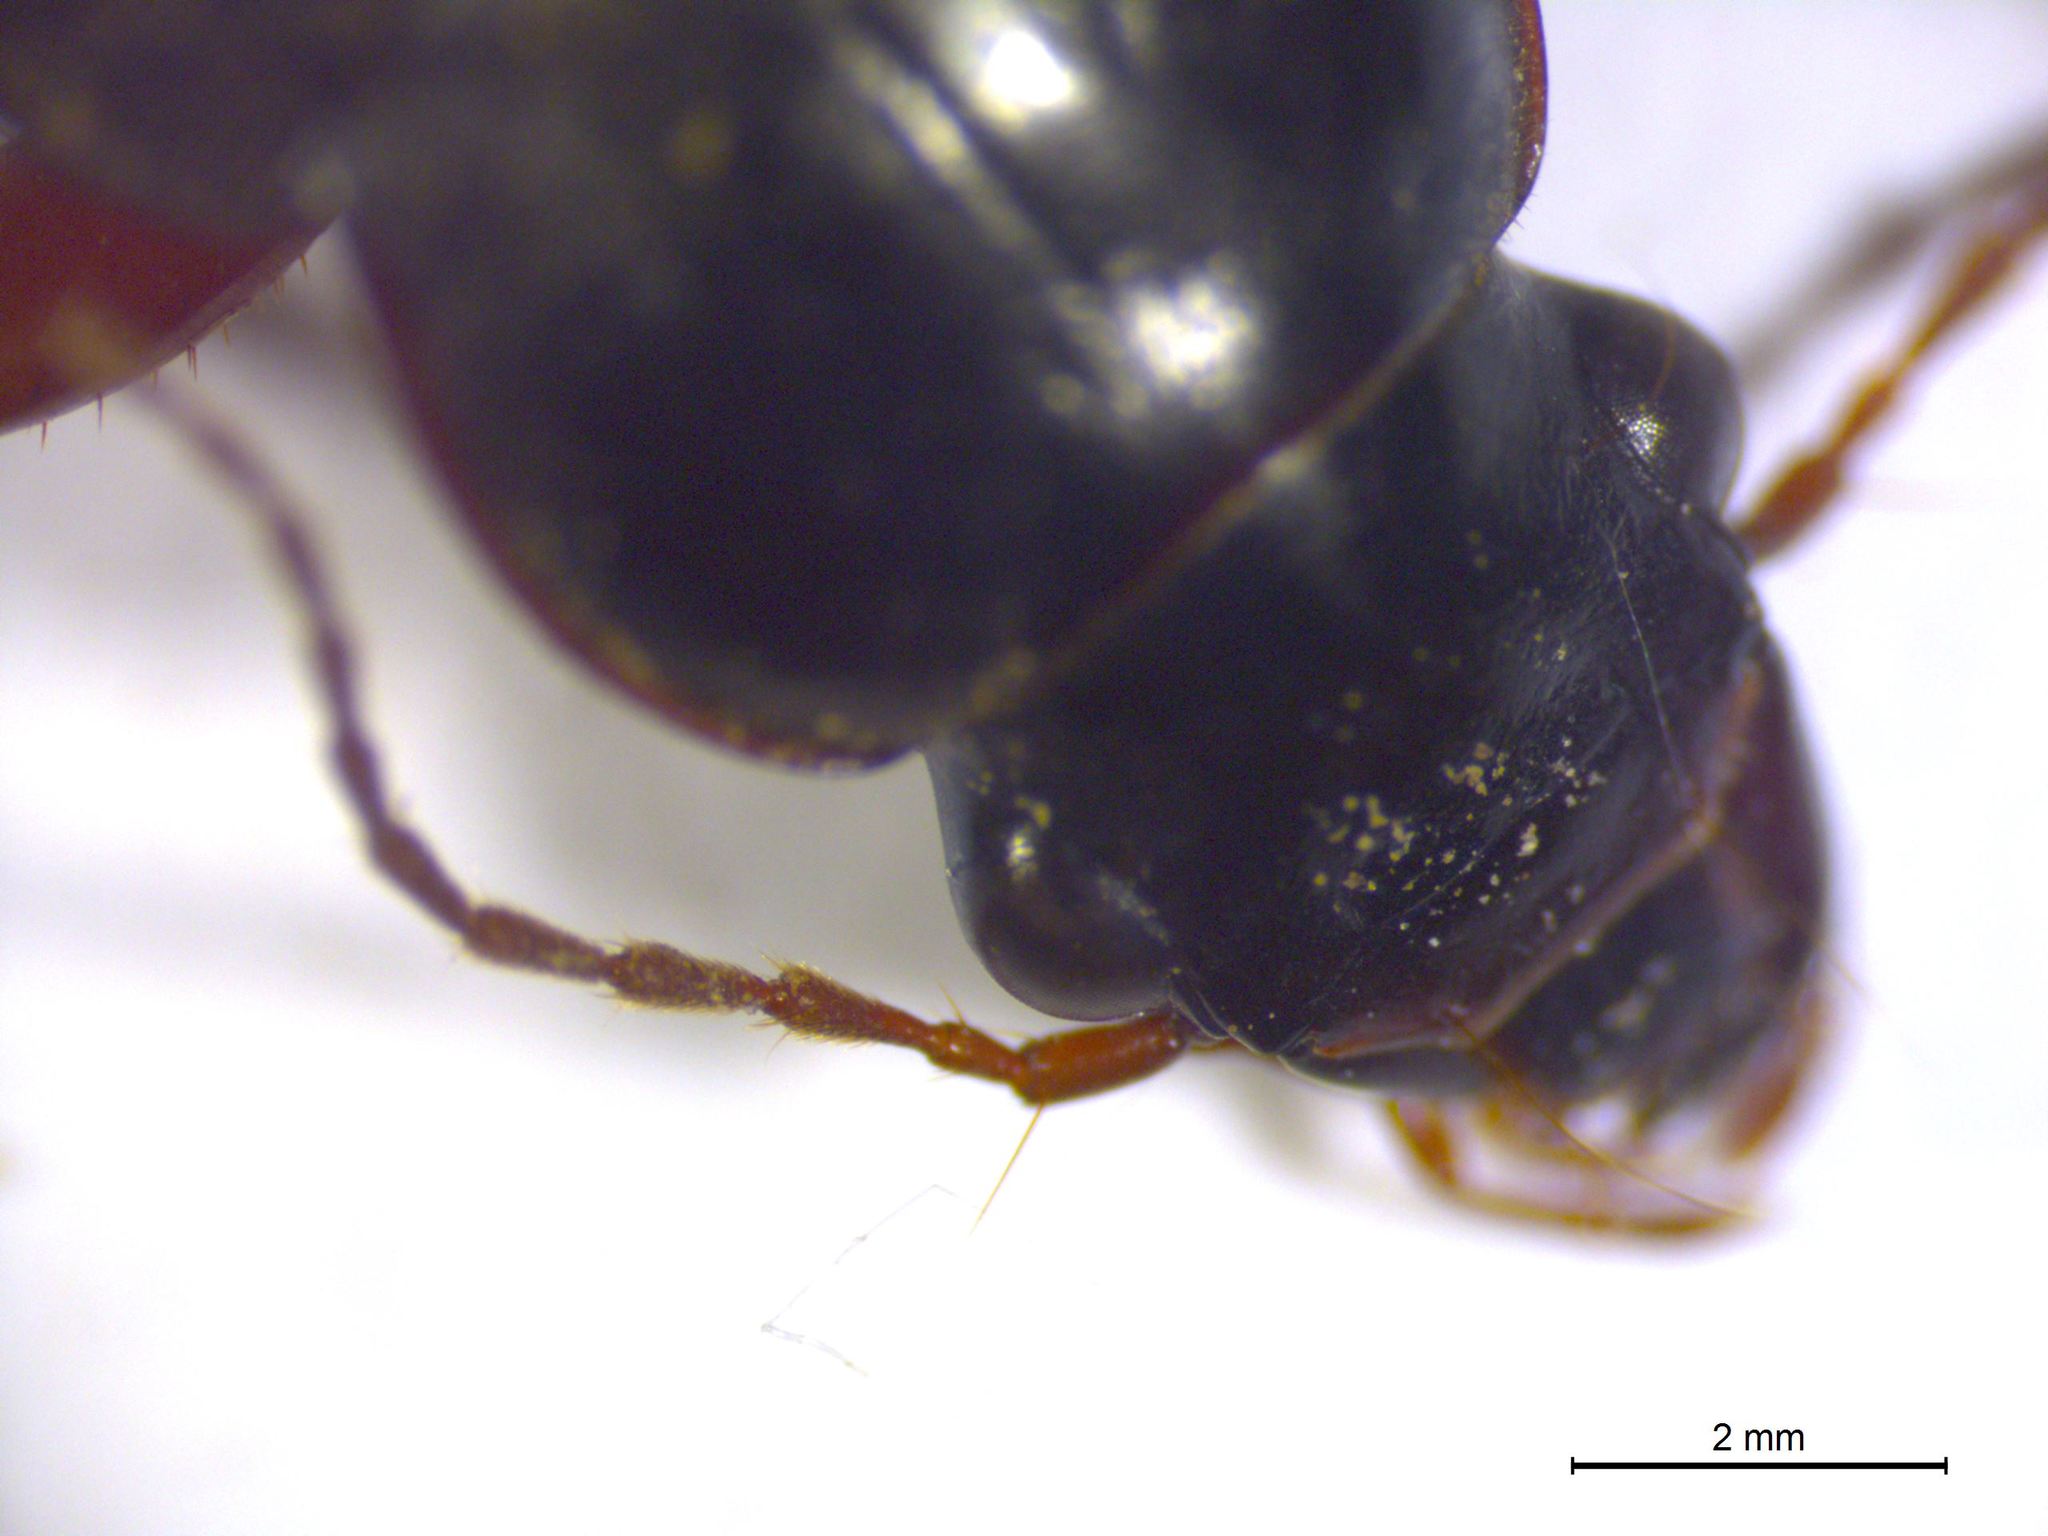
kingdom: Animalia
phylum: Arthropoda
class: Insecta
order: Coleoptera
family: Carabidae
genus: Harpalus
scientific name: Harpalus rufipes
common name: Strawberry harp ground beetle
